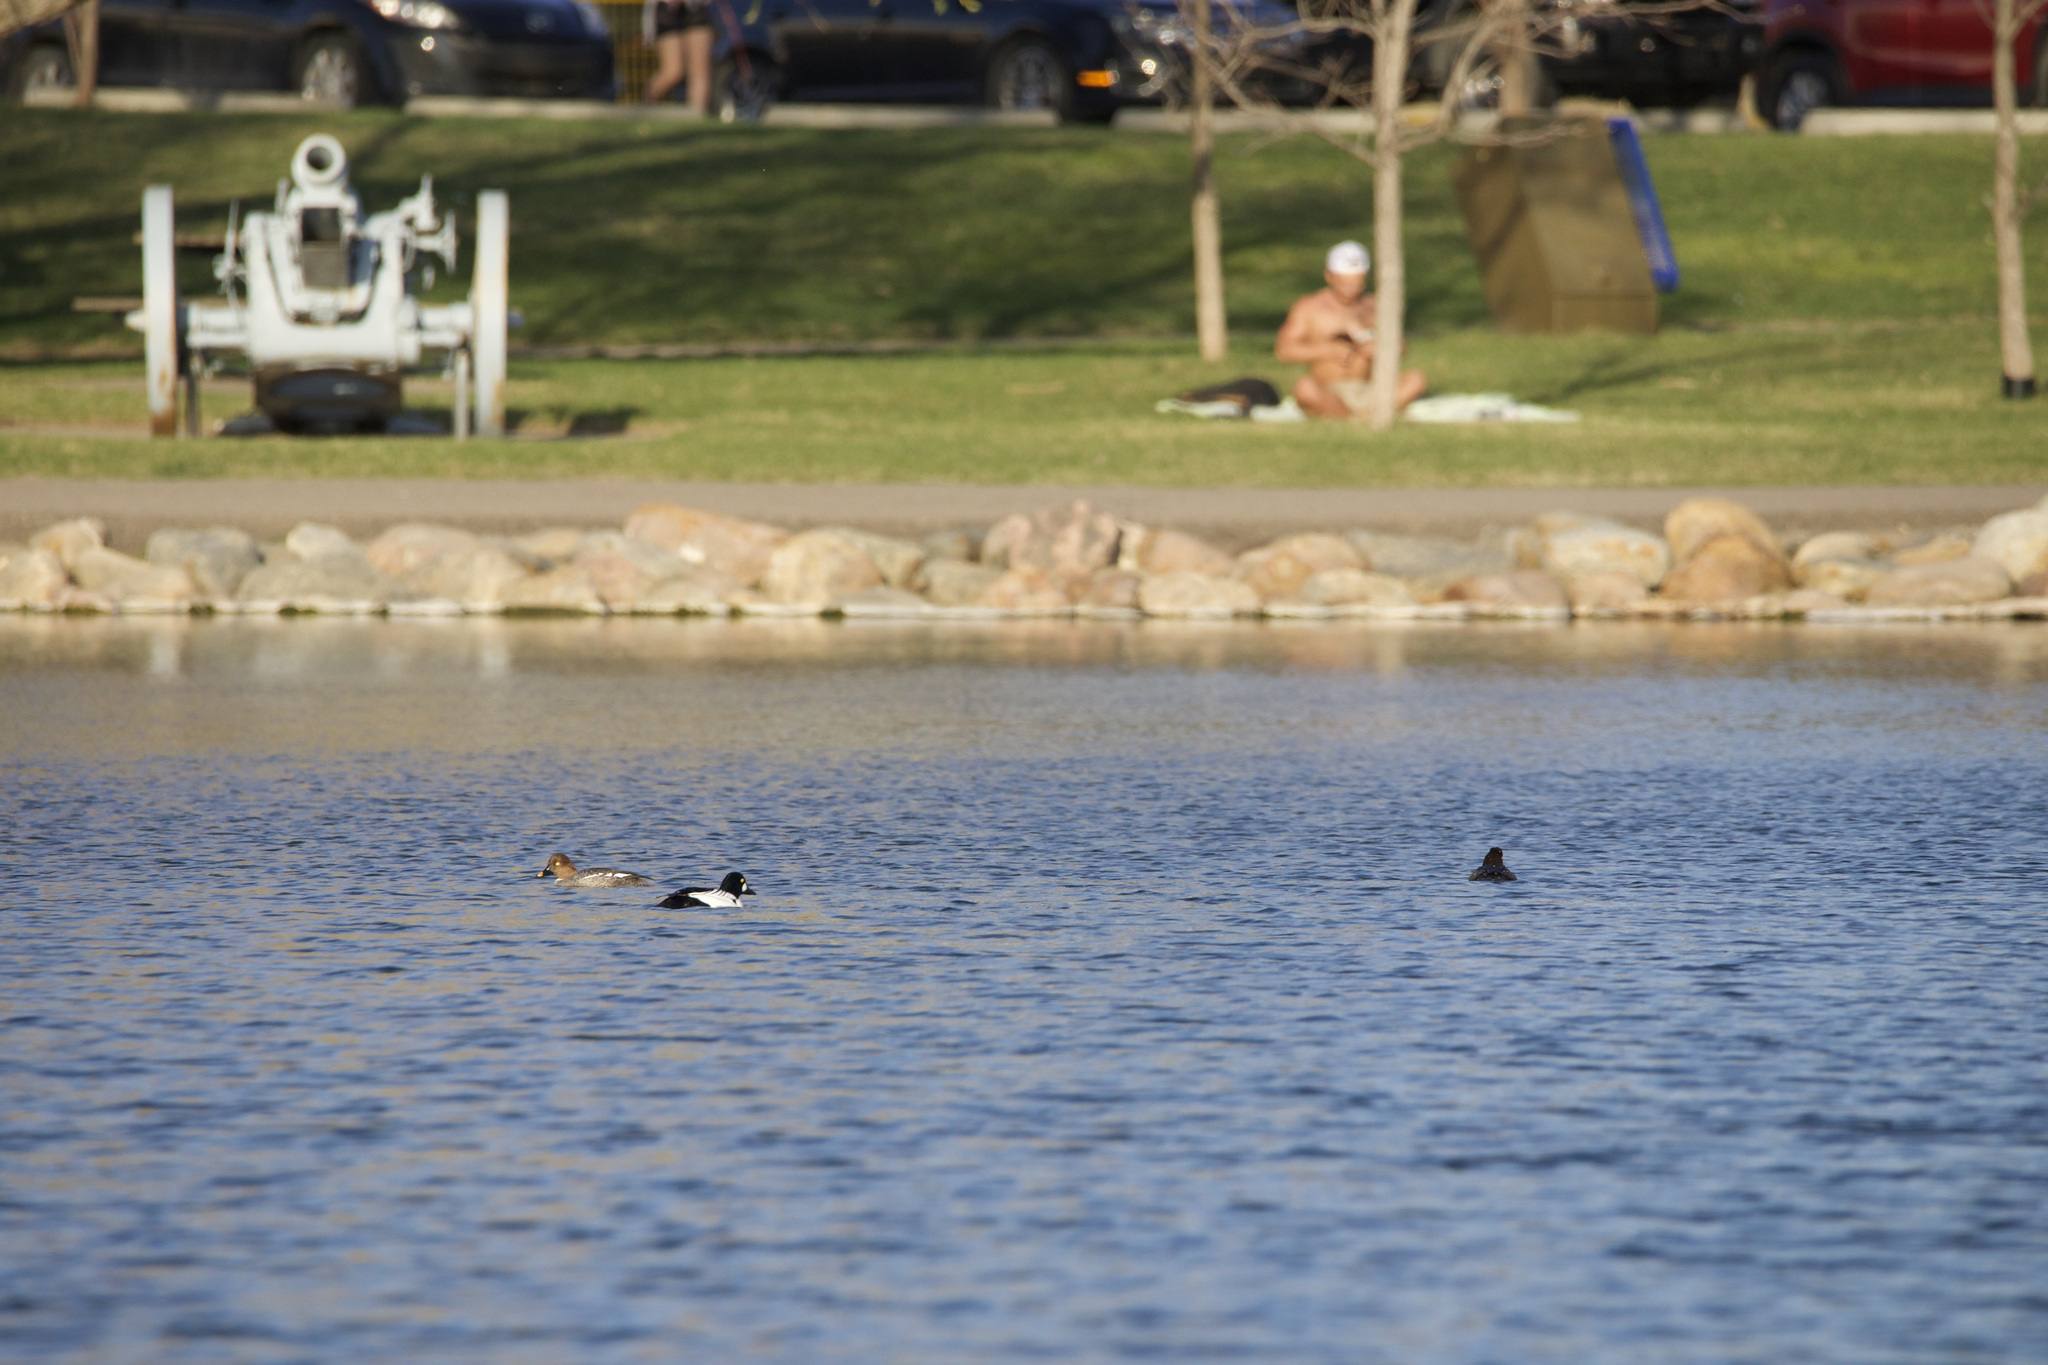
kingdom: Animalia
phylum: Chordata
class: Aves
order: Anseriformes
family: Anatidae
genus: Bucephala
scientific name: Bucephala clangula
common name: Common goldeneye
